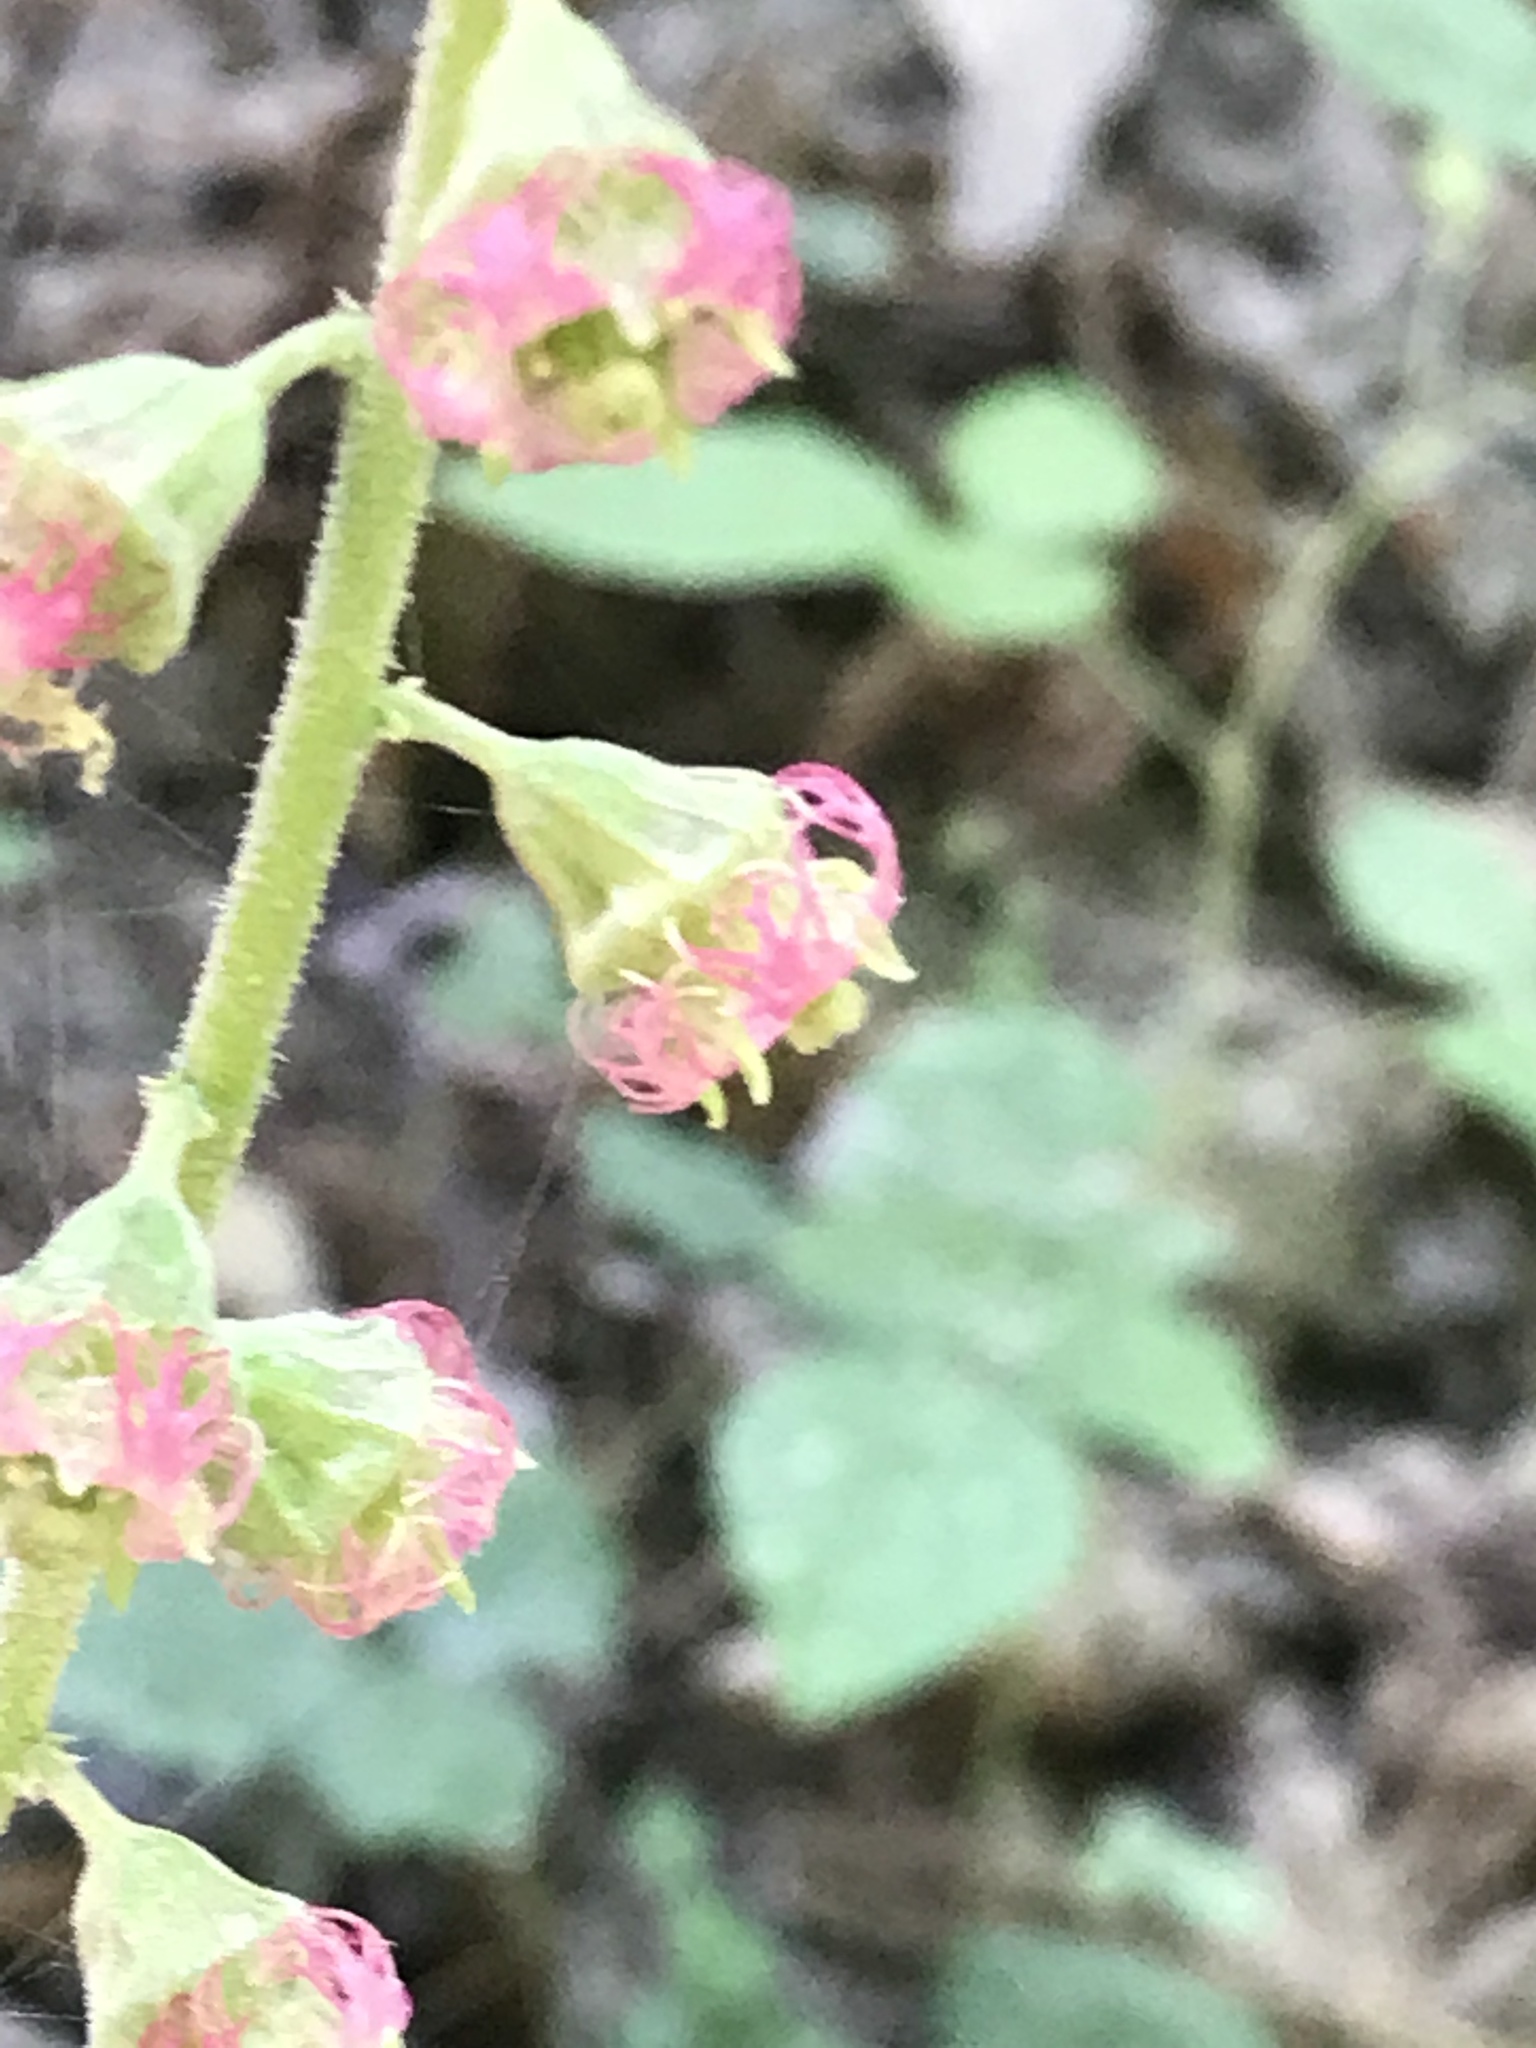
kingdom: Plantae
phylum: Tracheophyta
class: Magnoliopsida
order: Saxifragales
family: Saxifragaceae
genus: Tellima
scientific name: Tellima grandiflora
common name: Fringecups
